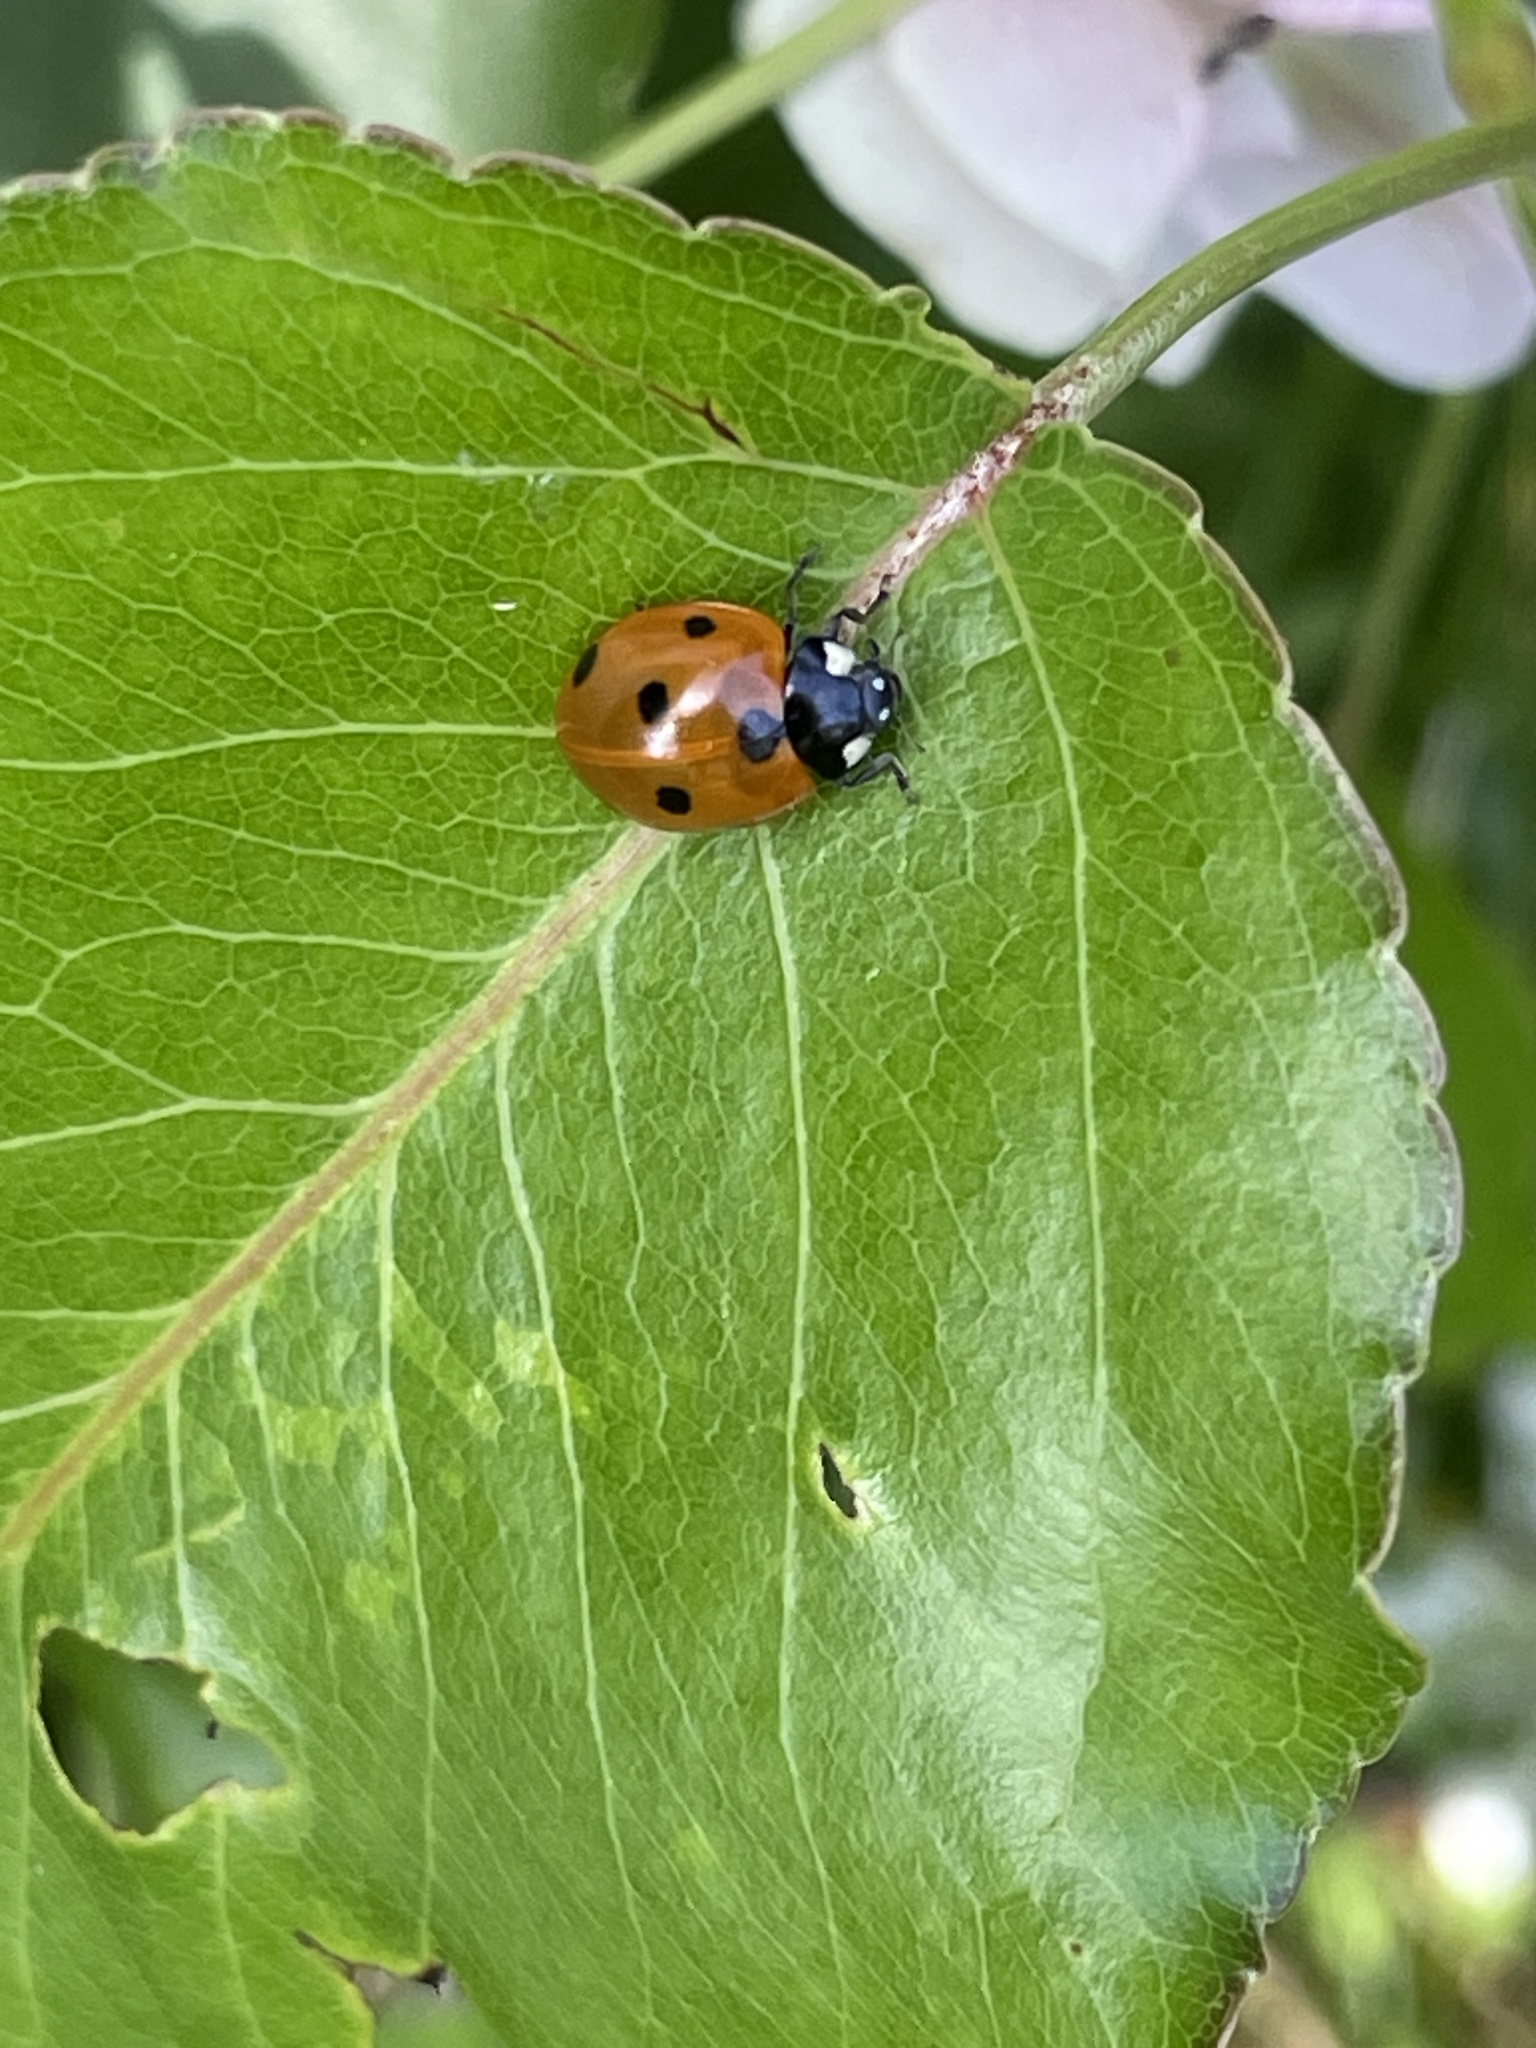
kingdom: Animalia
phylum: Arthropoda
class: Insecta
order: Coleoptera
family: Coccinellidae
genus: Coccinella
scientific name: Coccinella septempunctata
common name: Sevenspotted lady beetle
